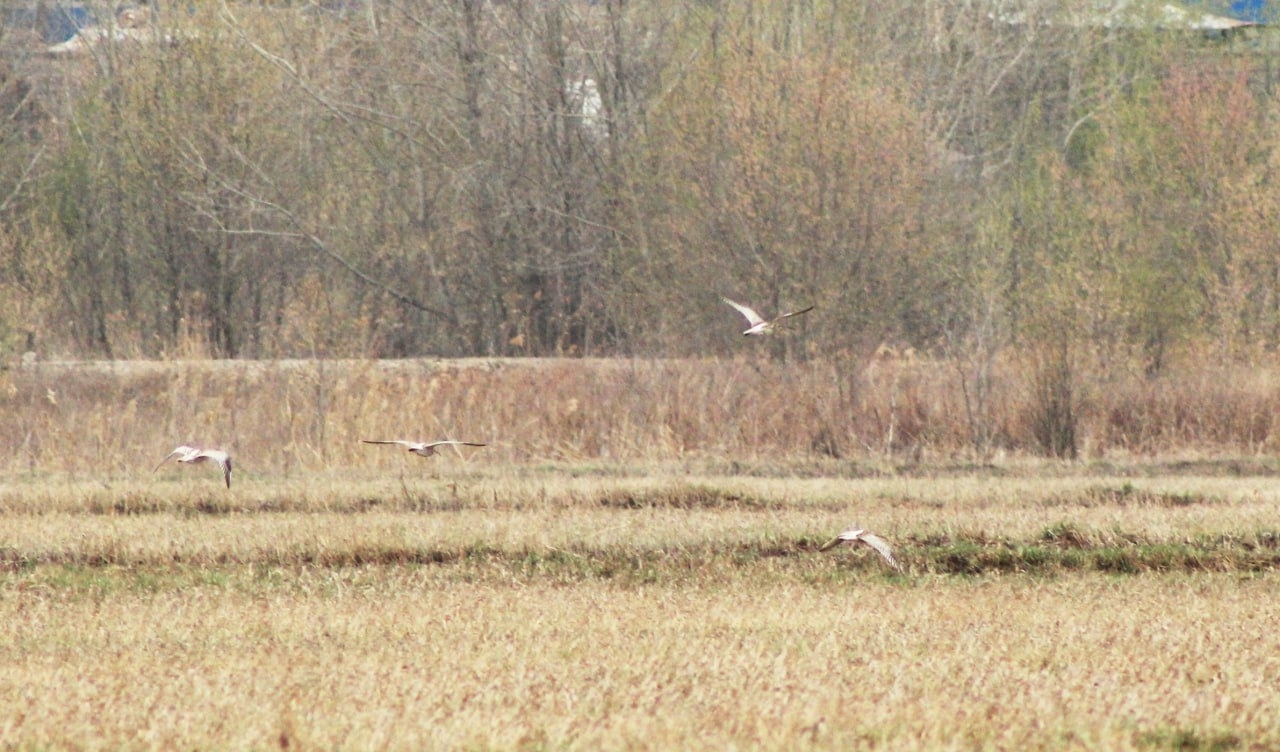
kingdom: Animalia
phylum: Chordata
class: Aves
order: Charadriiformes
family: Scolopacidae
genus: Numenius
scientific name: Numenius arquata
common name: Eurasian curlew
